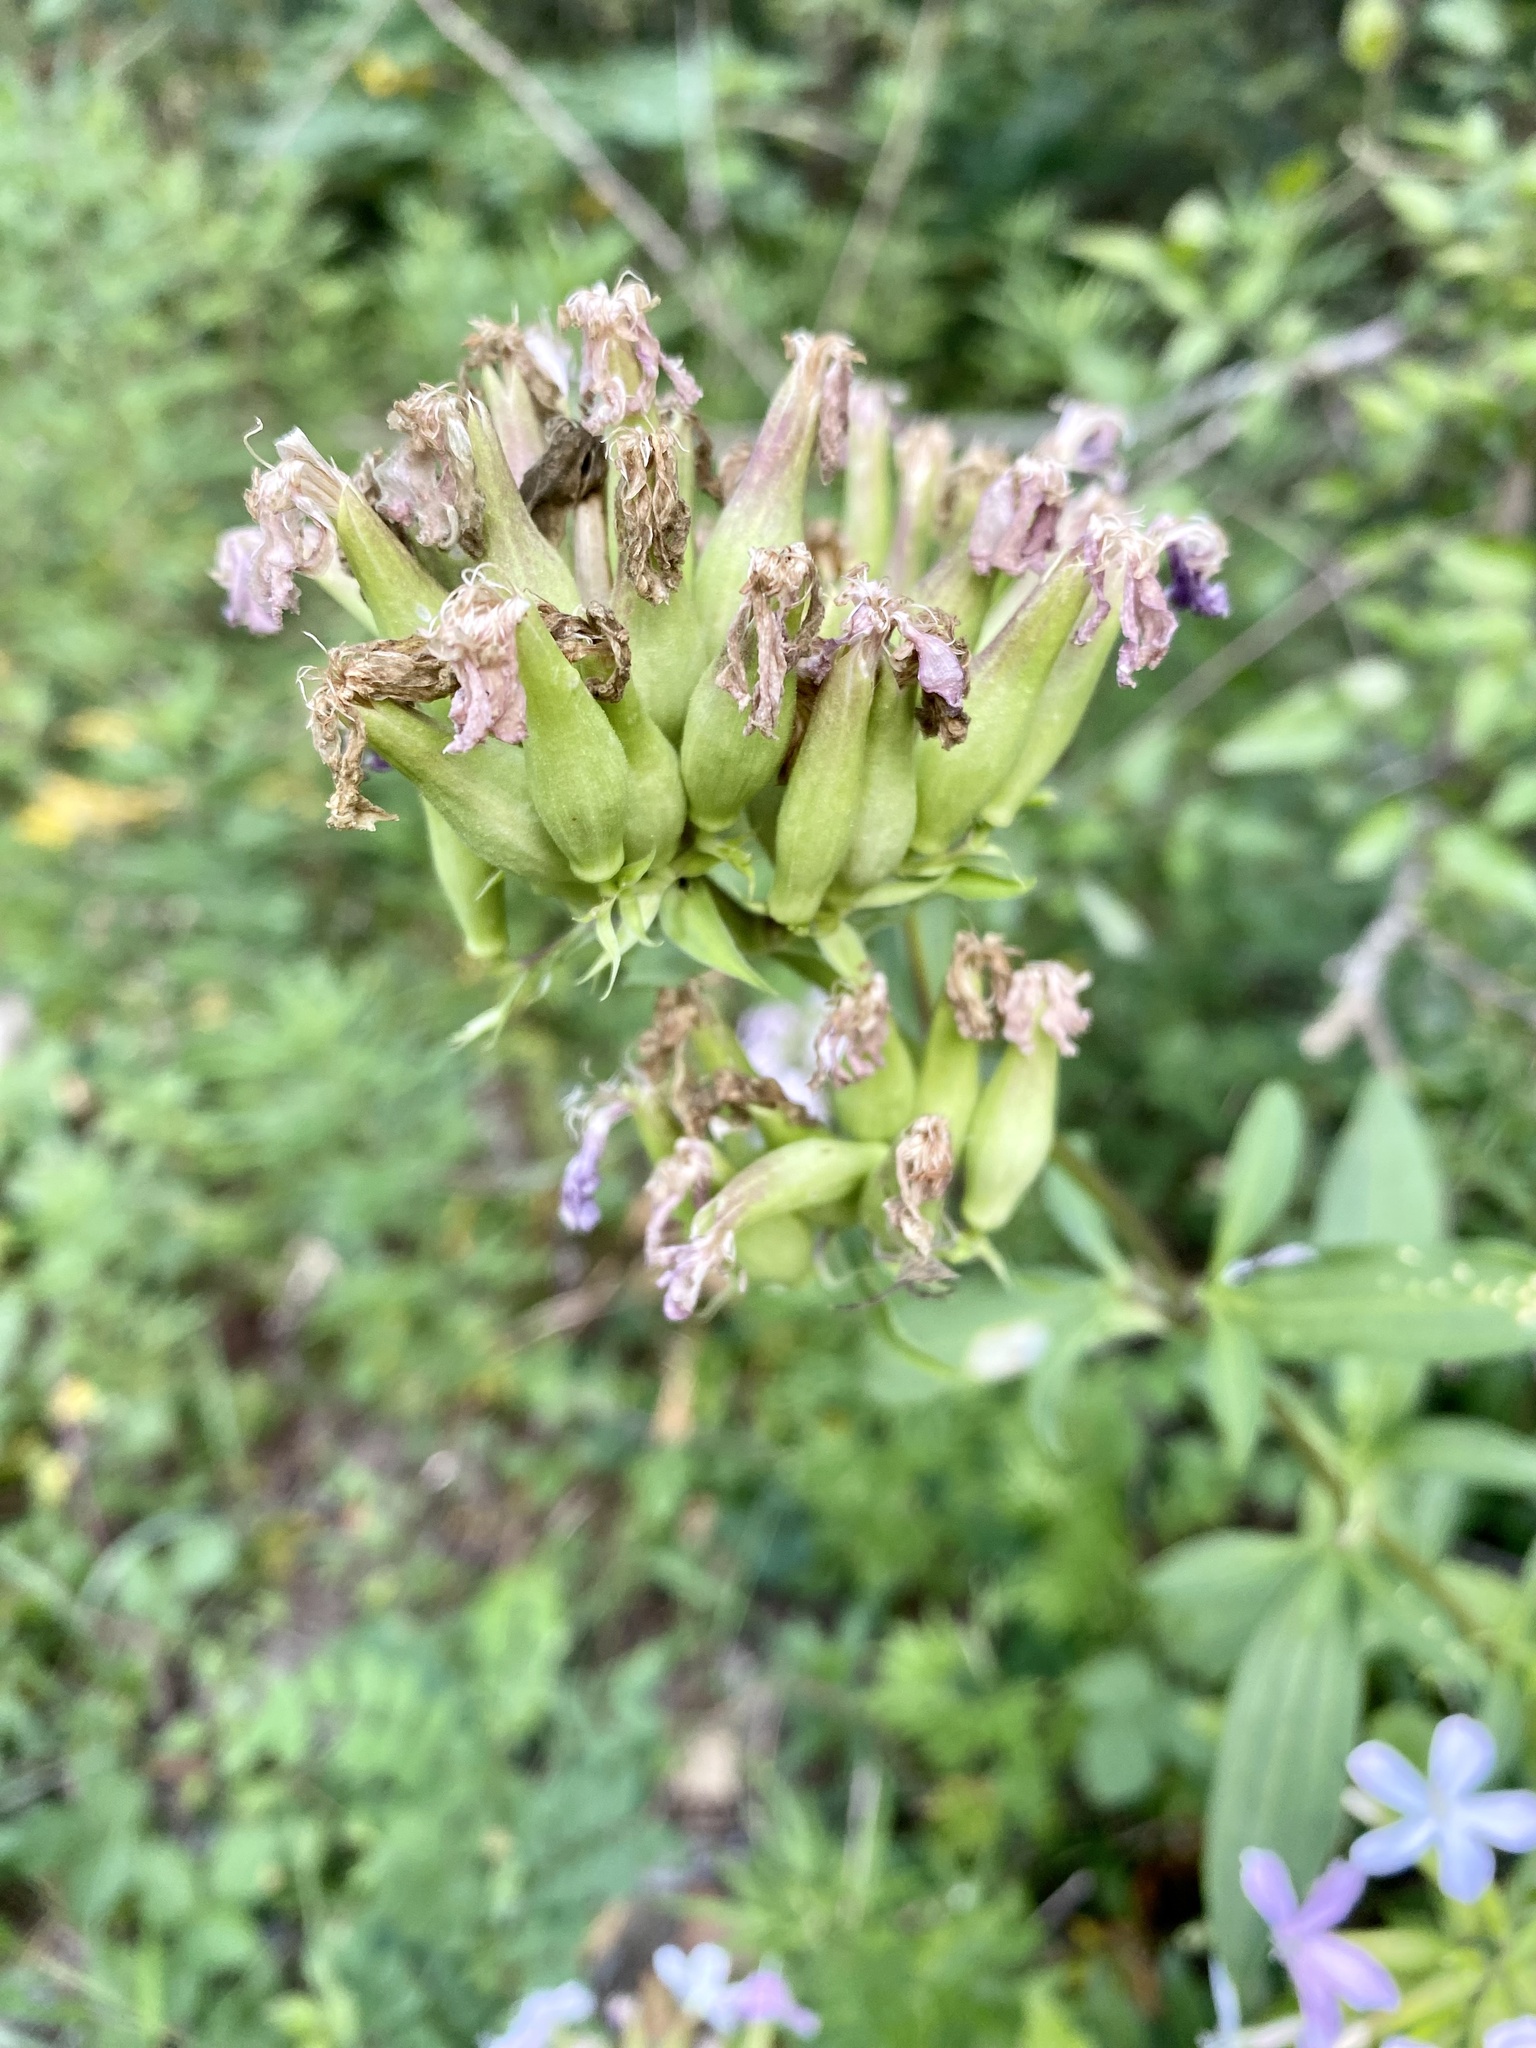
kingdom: Plantae
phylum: Tracheophyta
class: Magnoliopsida
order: Caryophyllales
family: Caryophyllaceae
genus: Saponaria
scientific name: Saponaria officinalis
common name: Soapwort
